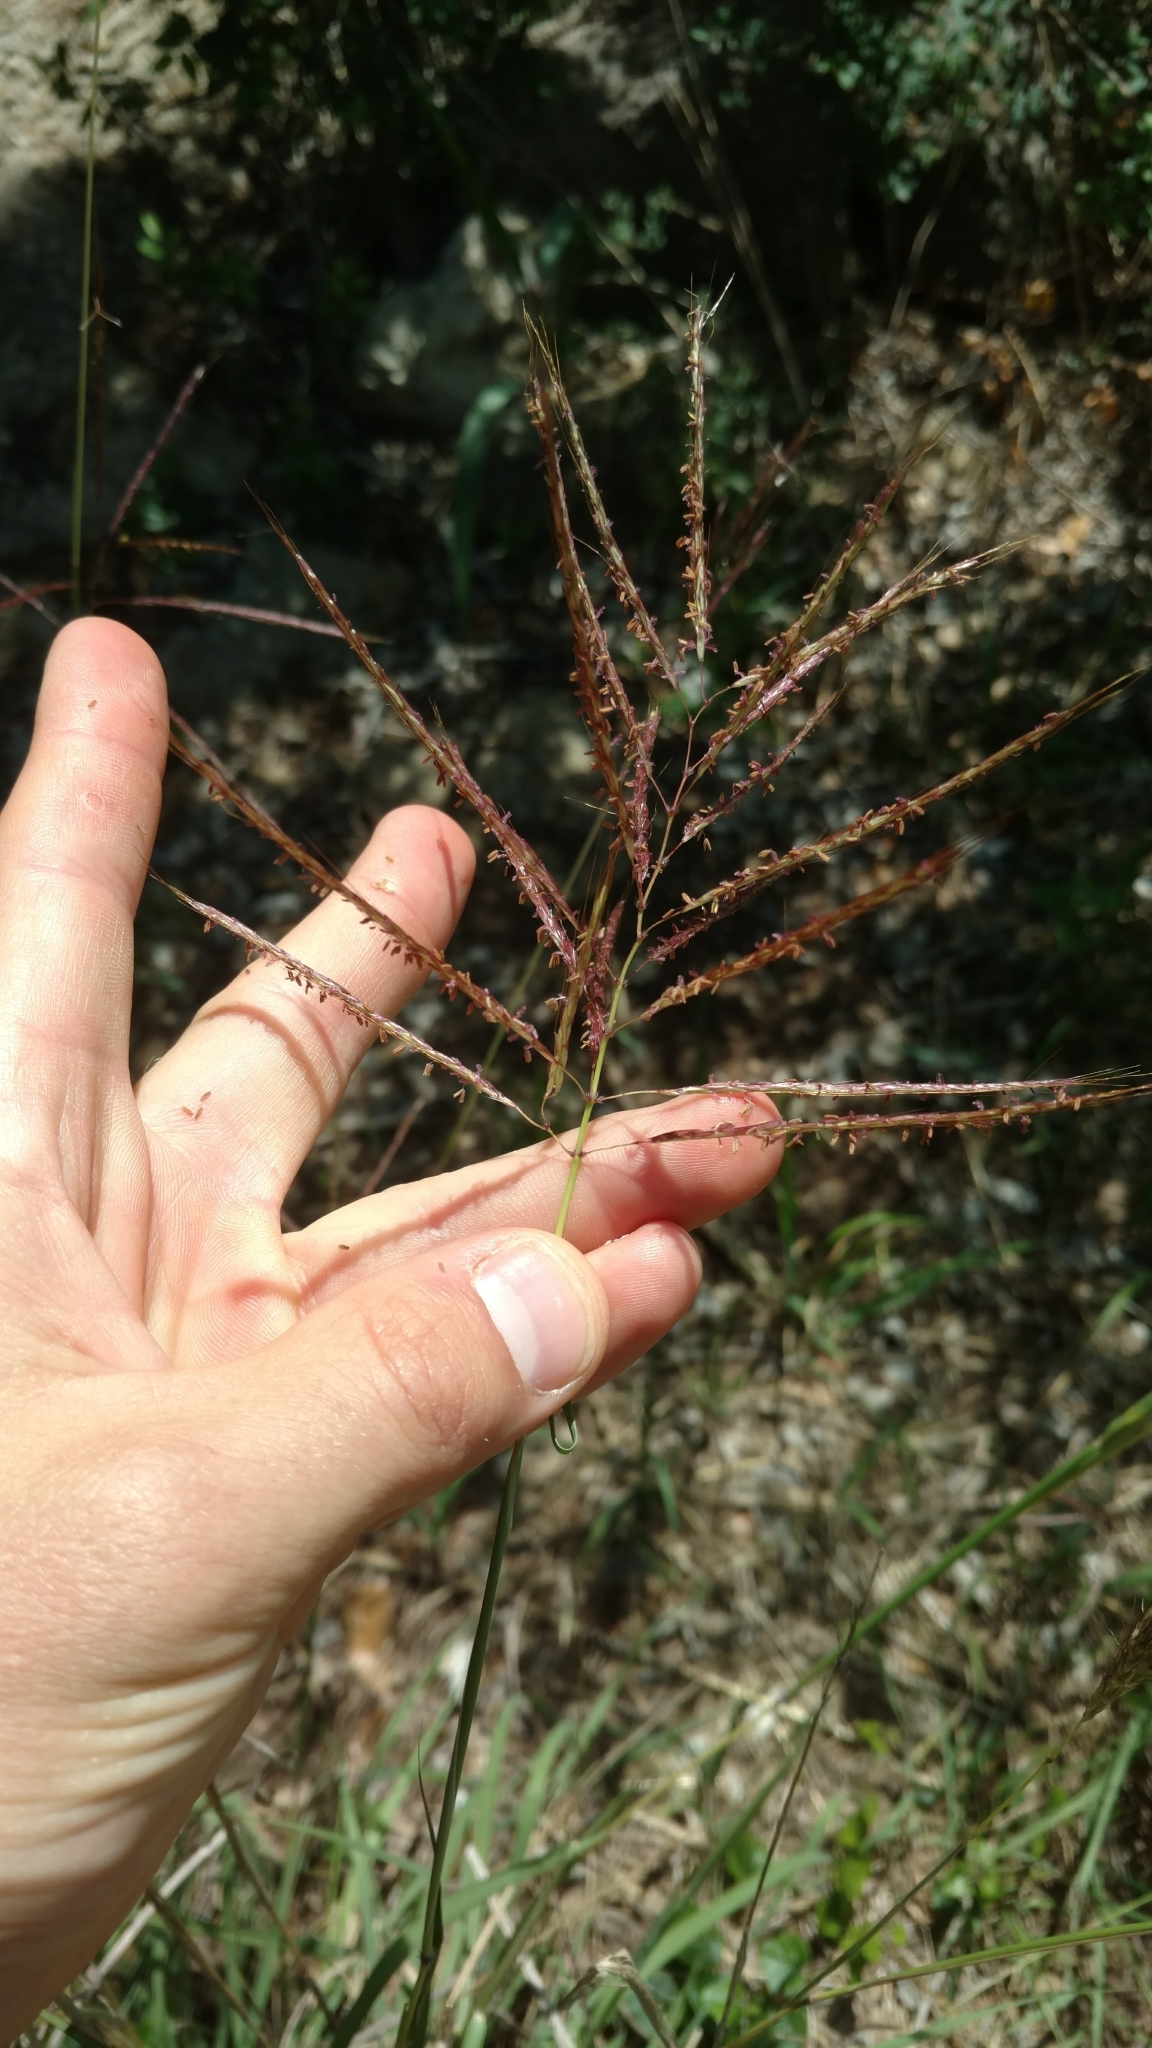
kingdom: Plantae
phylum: Tracheophyta
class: Liliopsida
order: Poales
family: Poaceae
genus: Bothriochloa
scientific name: Bothriochloa bladhii
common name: Caucasian bluestem
